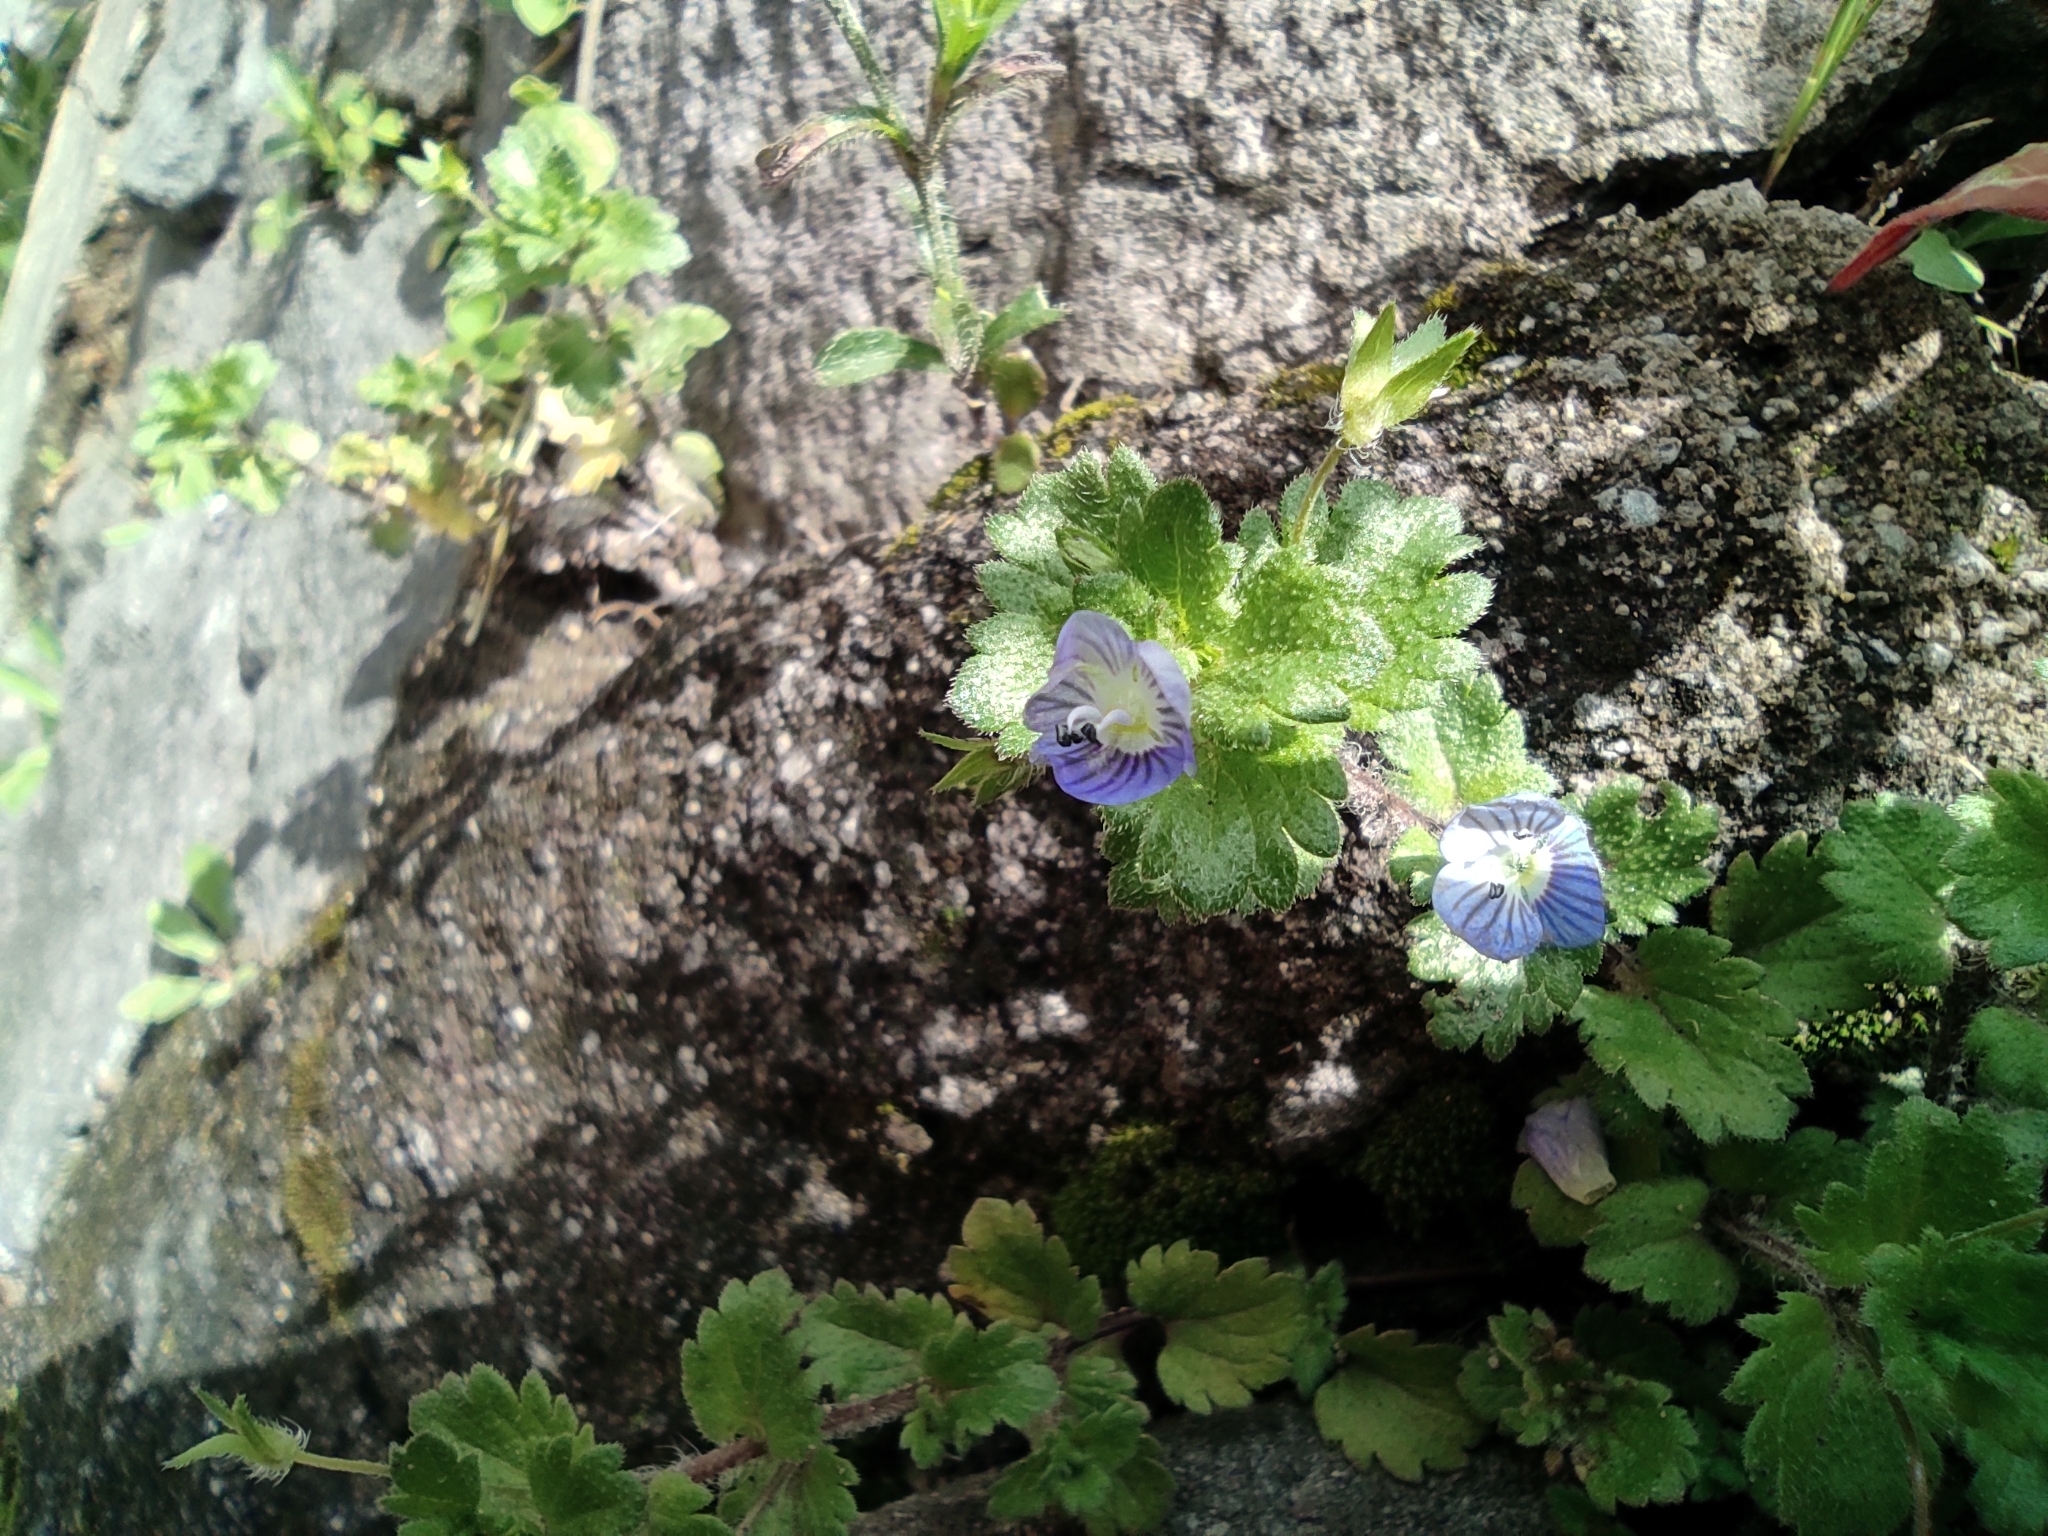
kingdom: Plantae
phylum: Tracheophyta
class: Magnoliopsida
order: Lamiales
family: Plantaginaceae
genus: Veronica
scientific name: Veronica persica
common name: Common field-speedwell
